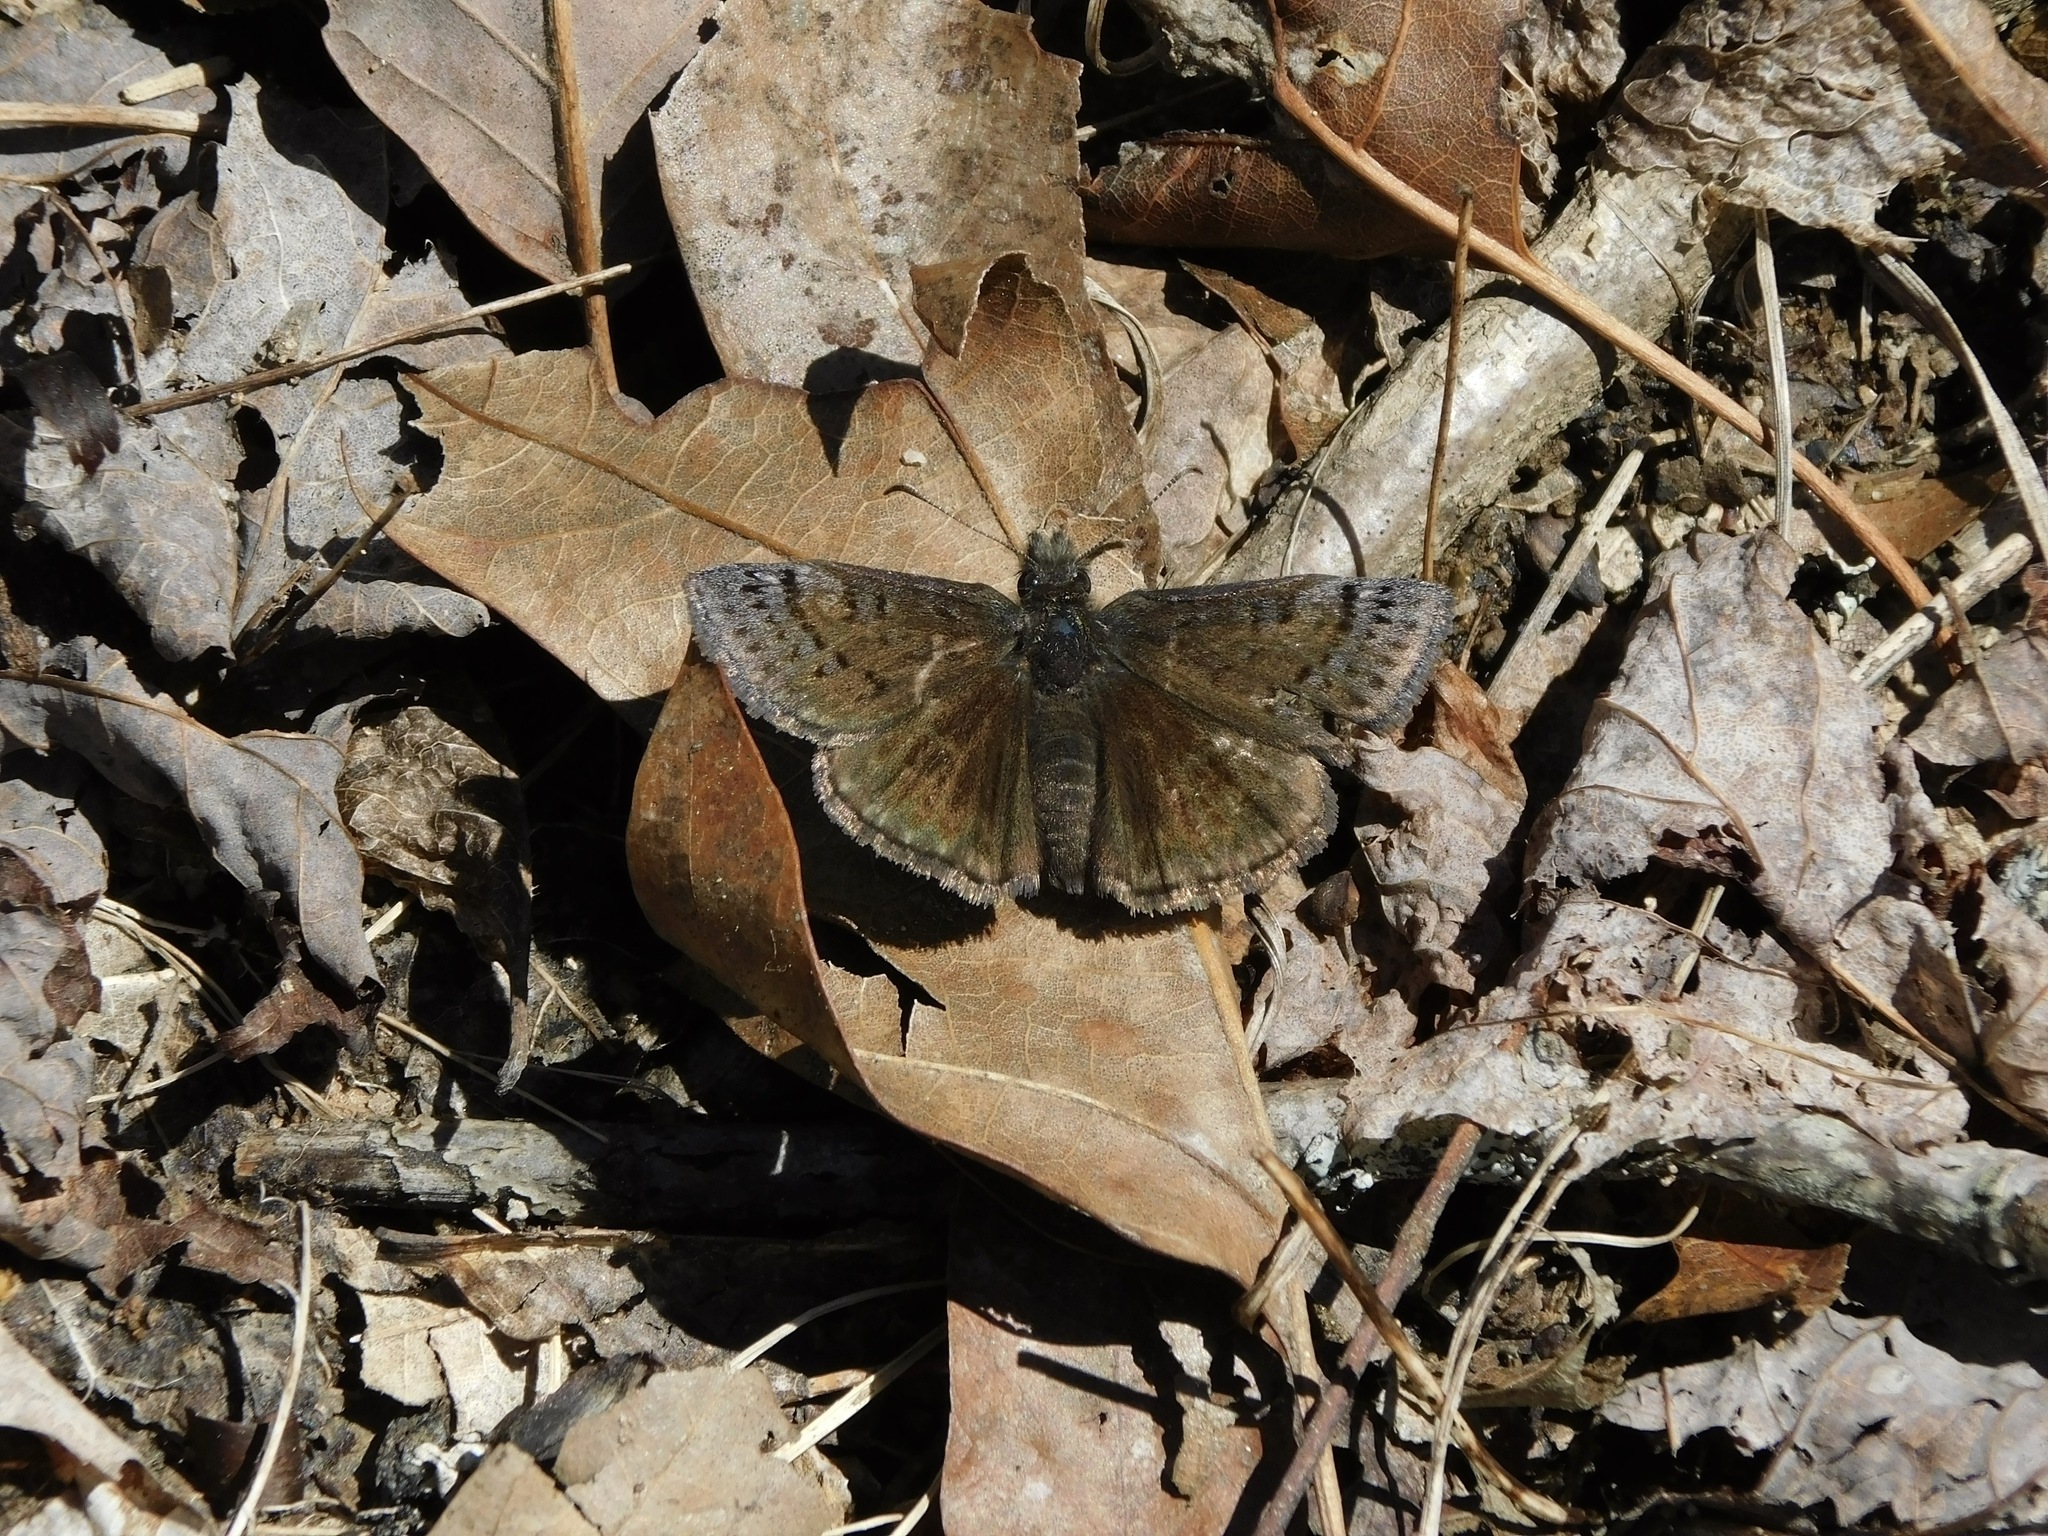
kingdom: Animalia
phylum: Arthropoda
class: Insecta
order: Lepidoptera
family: Hesperiidae
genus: Erynnis
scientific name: Erynnis icelus
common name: Dreamy duskywing
